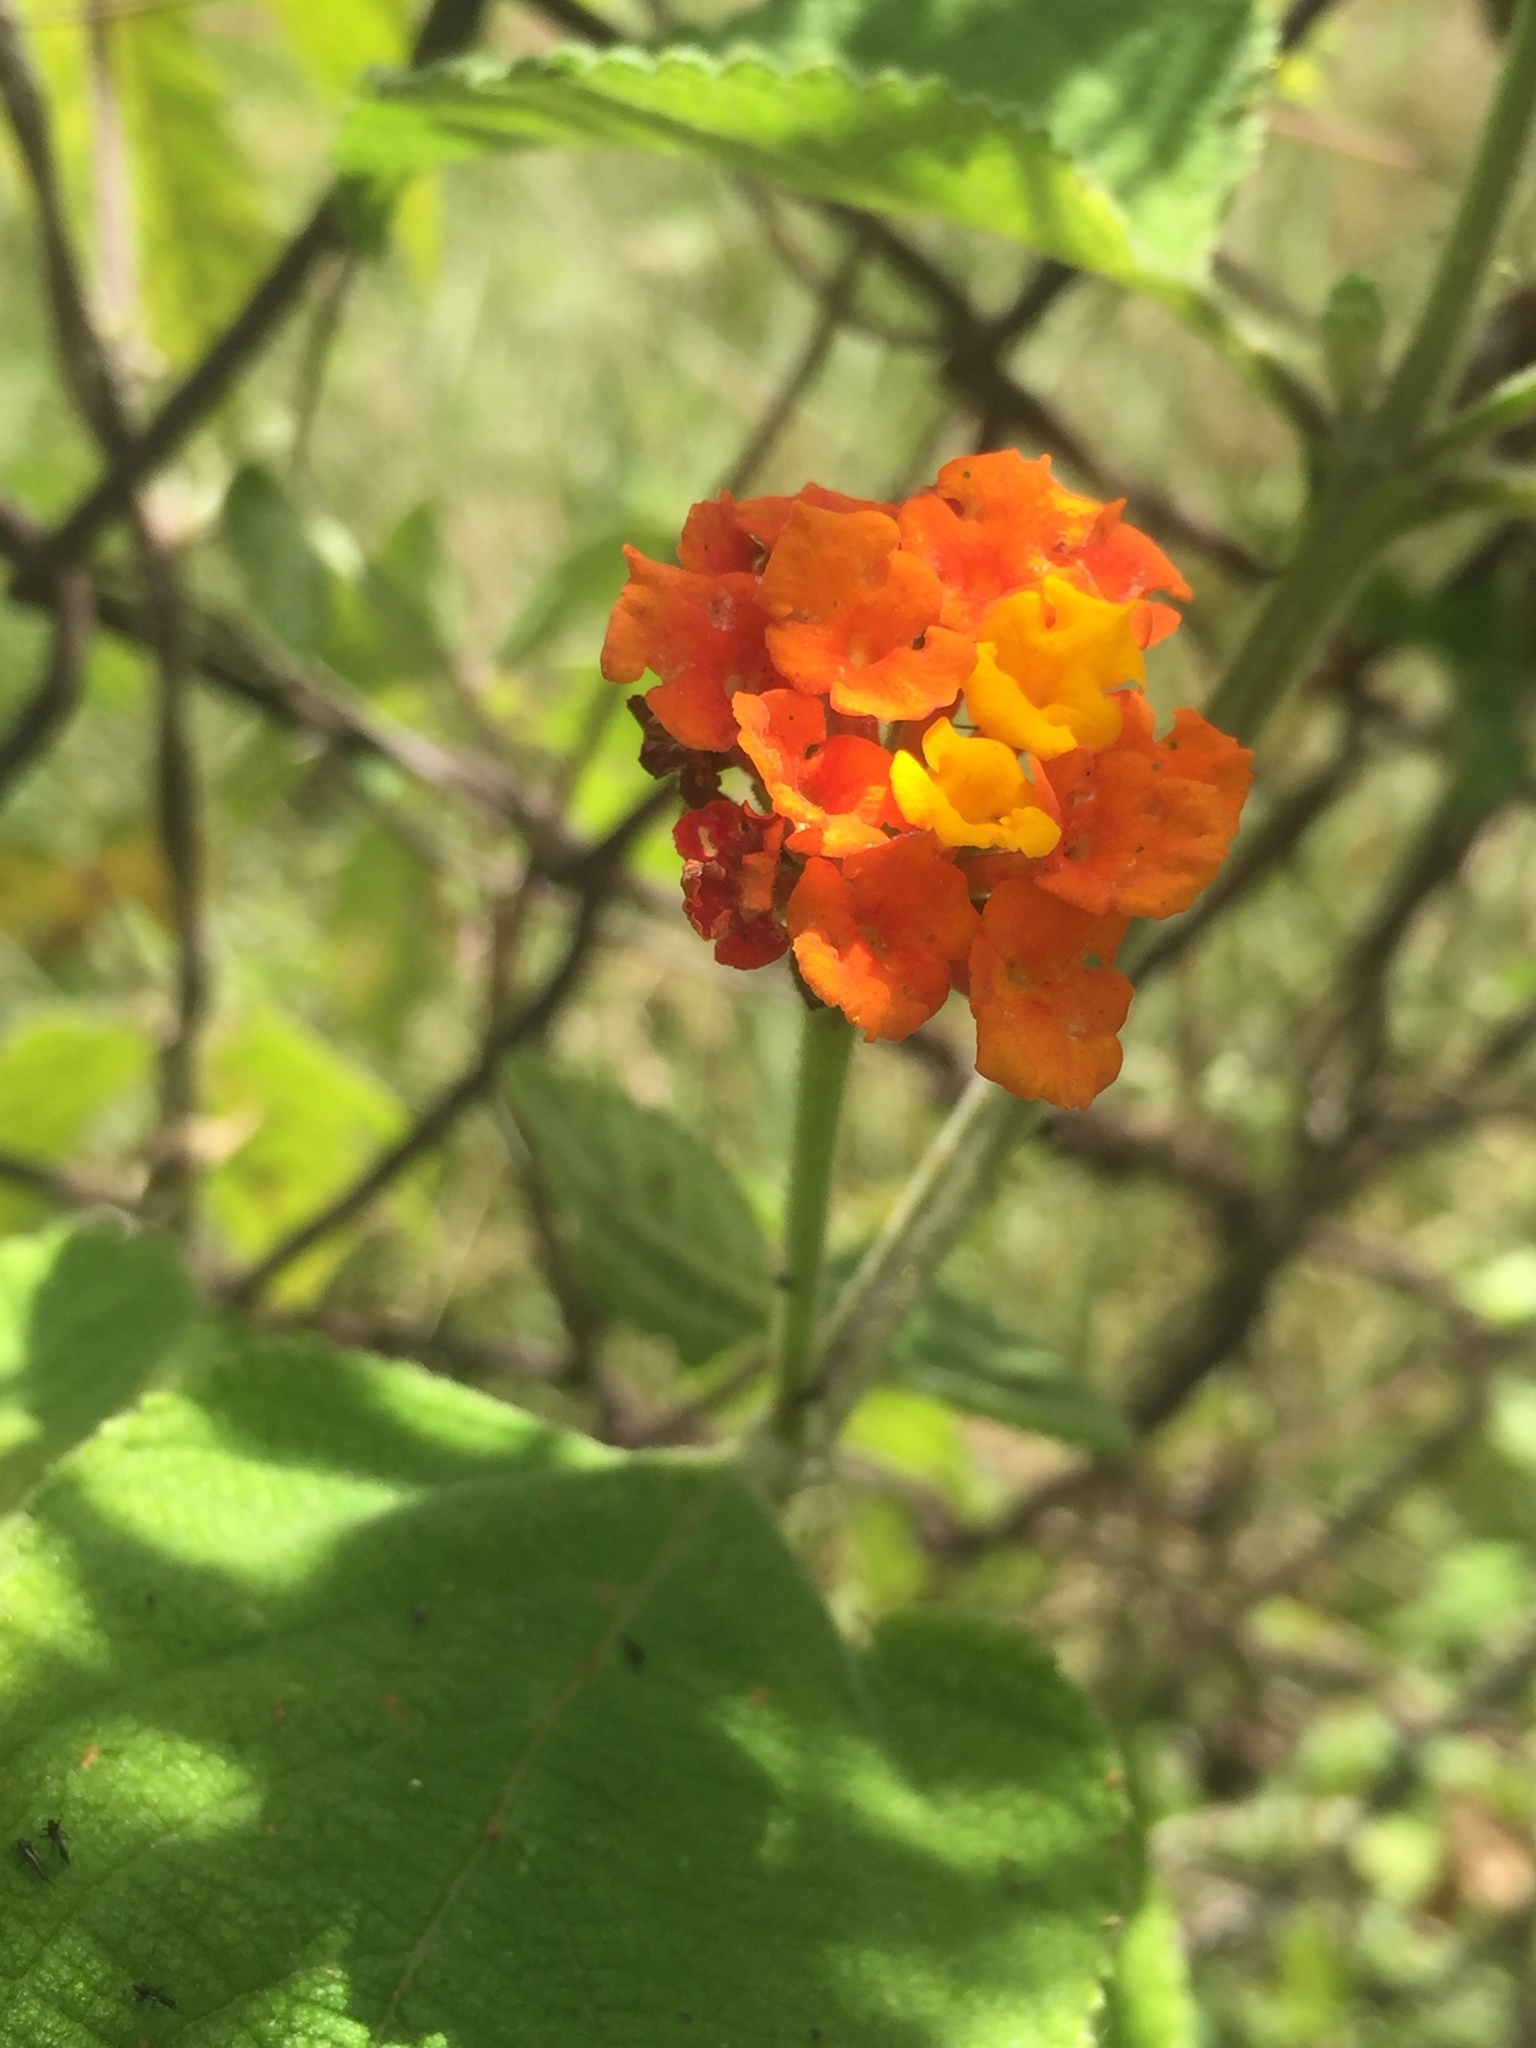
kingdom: Plantae
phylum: Tracheophyta
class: Magnoliopsida
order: Lamiales
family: Verbenaceae
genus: Lantana
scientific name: Lantana camara
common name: Lantana
